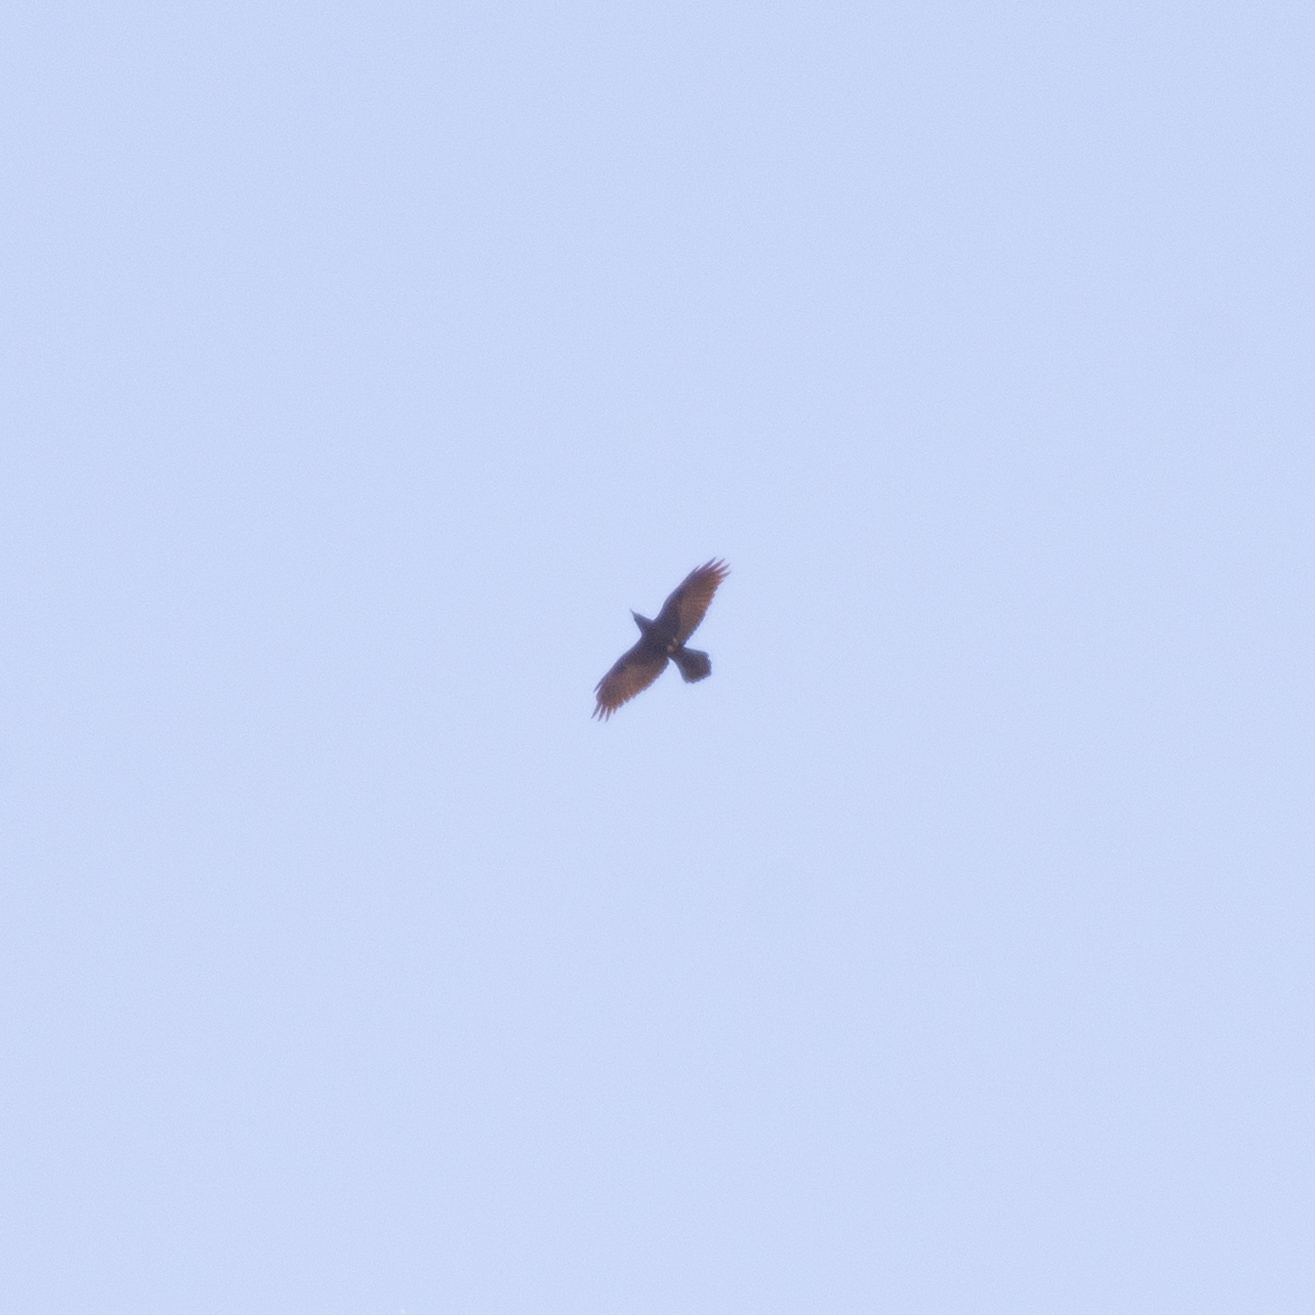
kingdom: Animalia
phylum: Chordata
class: Aves
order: Passeriformes
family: Corvidae
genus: Corvus
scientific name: Corvus corax
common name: Common raven
